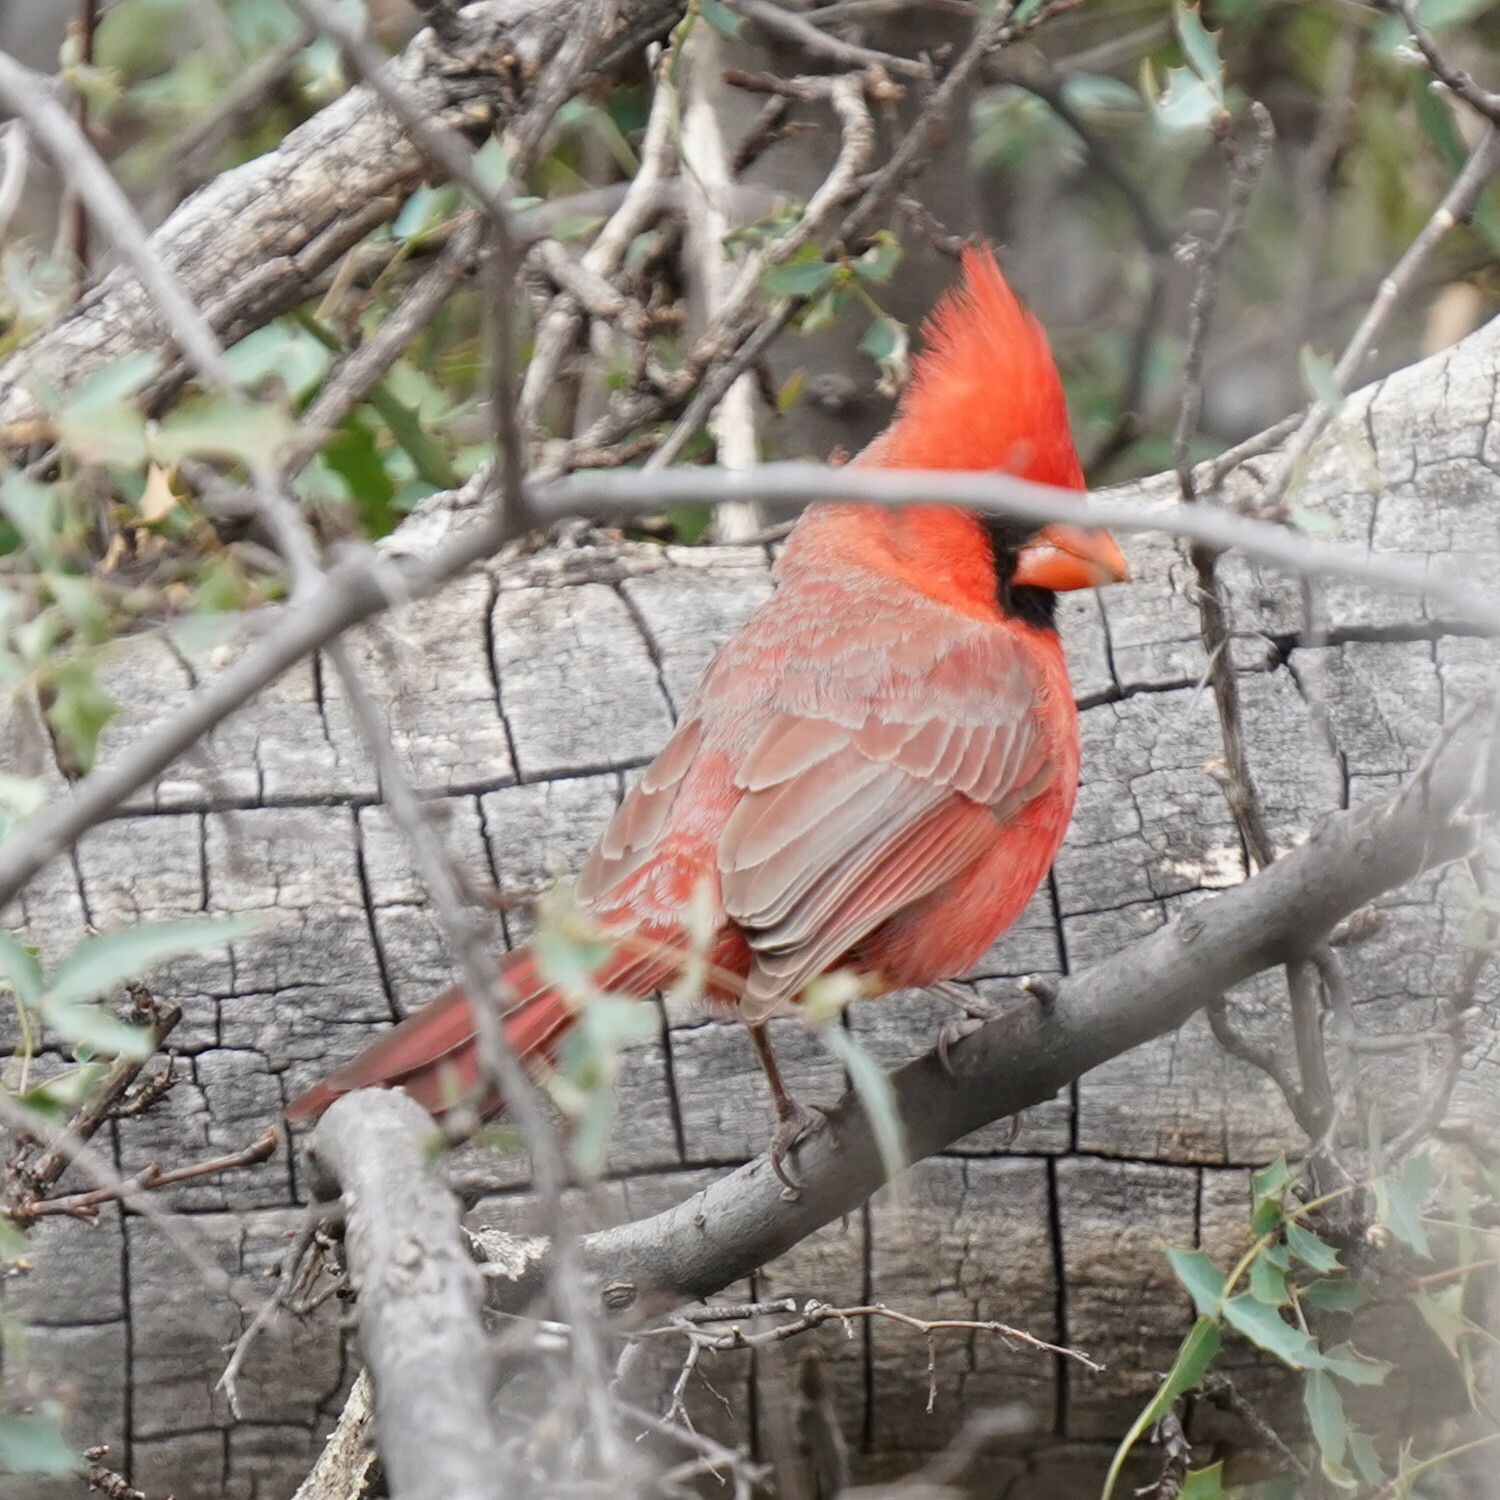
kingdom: Animalia
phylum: Chordata
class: Aves
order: Passeriformes
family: Cardinalidae
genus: Cardinalis
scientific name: Cardinalis cardinalis
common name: Northern cardinal
